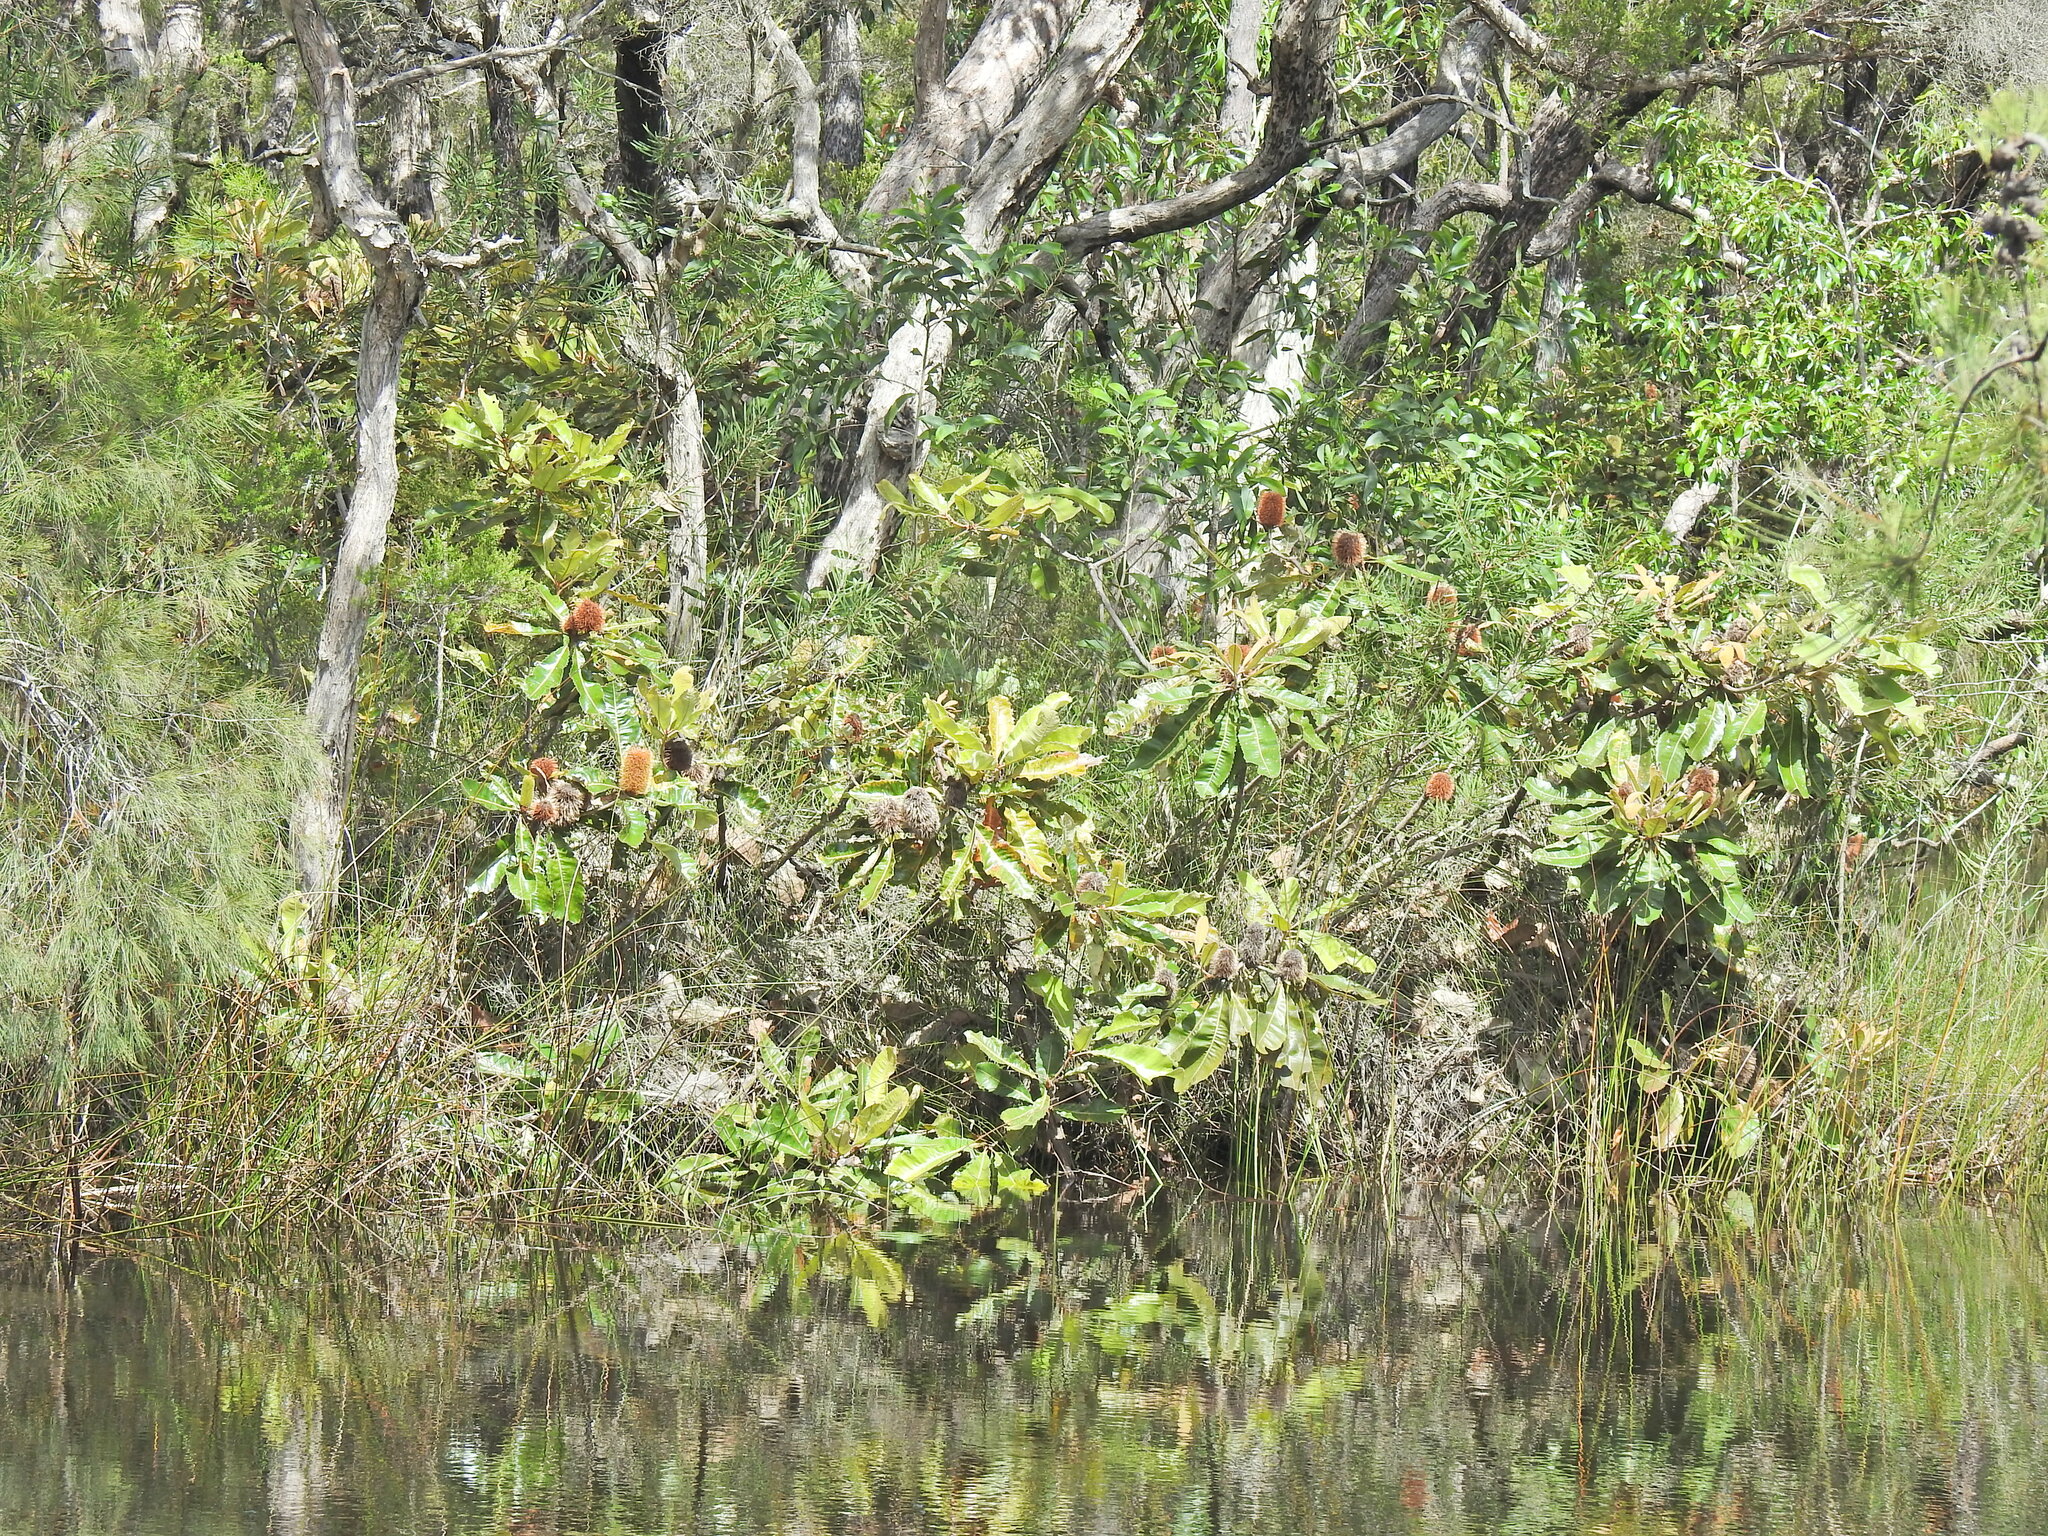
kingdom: Plantae
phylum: Tracheophyta
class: Magnoliopsida
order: Proteales
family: Proteaceae
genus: Banksia
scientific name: Banksia robur
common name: Broadleaf banksia
